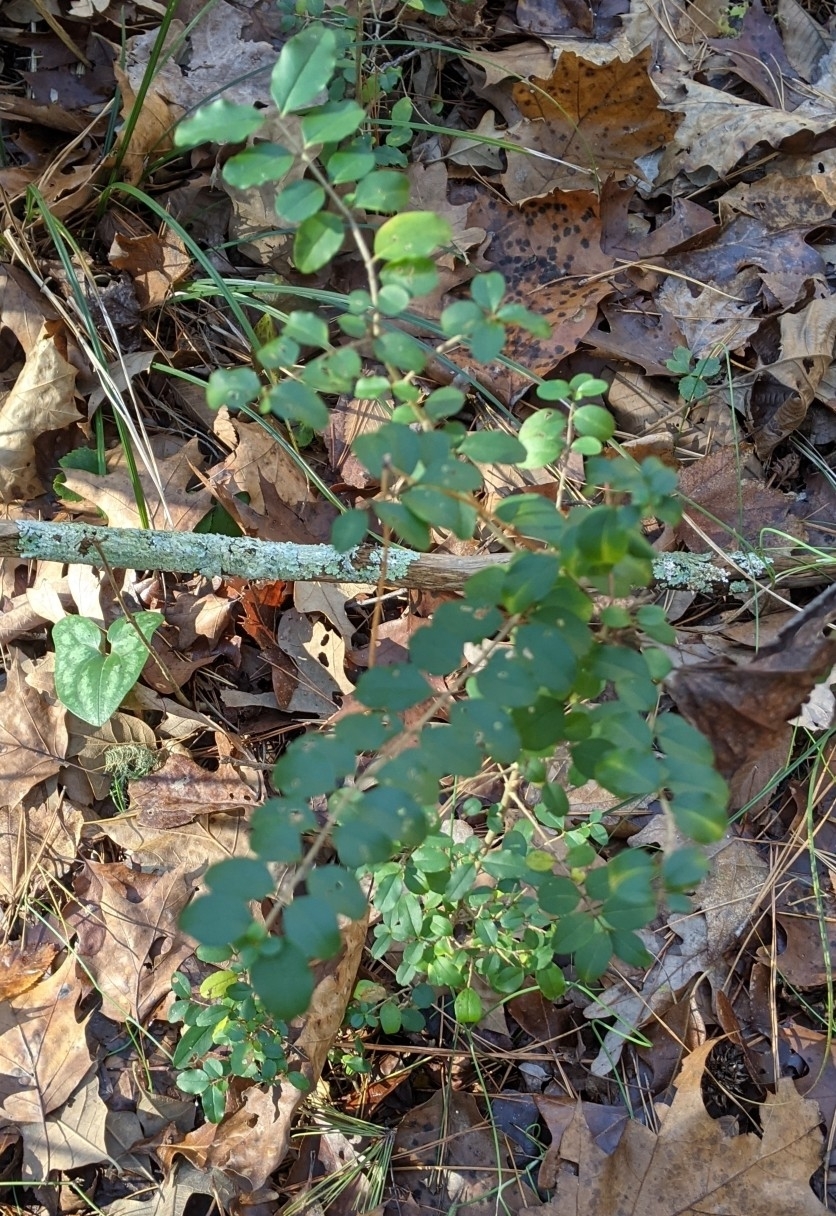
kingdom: Plantae
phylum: Tracheophyta
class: Magnoliopsida
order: Lamiales
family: Oleaceae
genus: Ligustrum
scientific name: Ligustrum sinense
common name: Chinese privet
